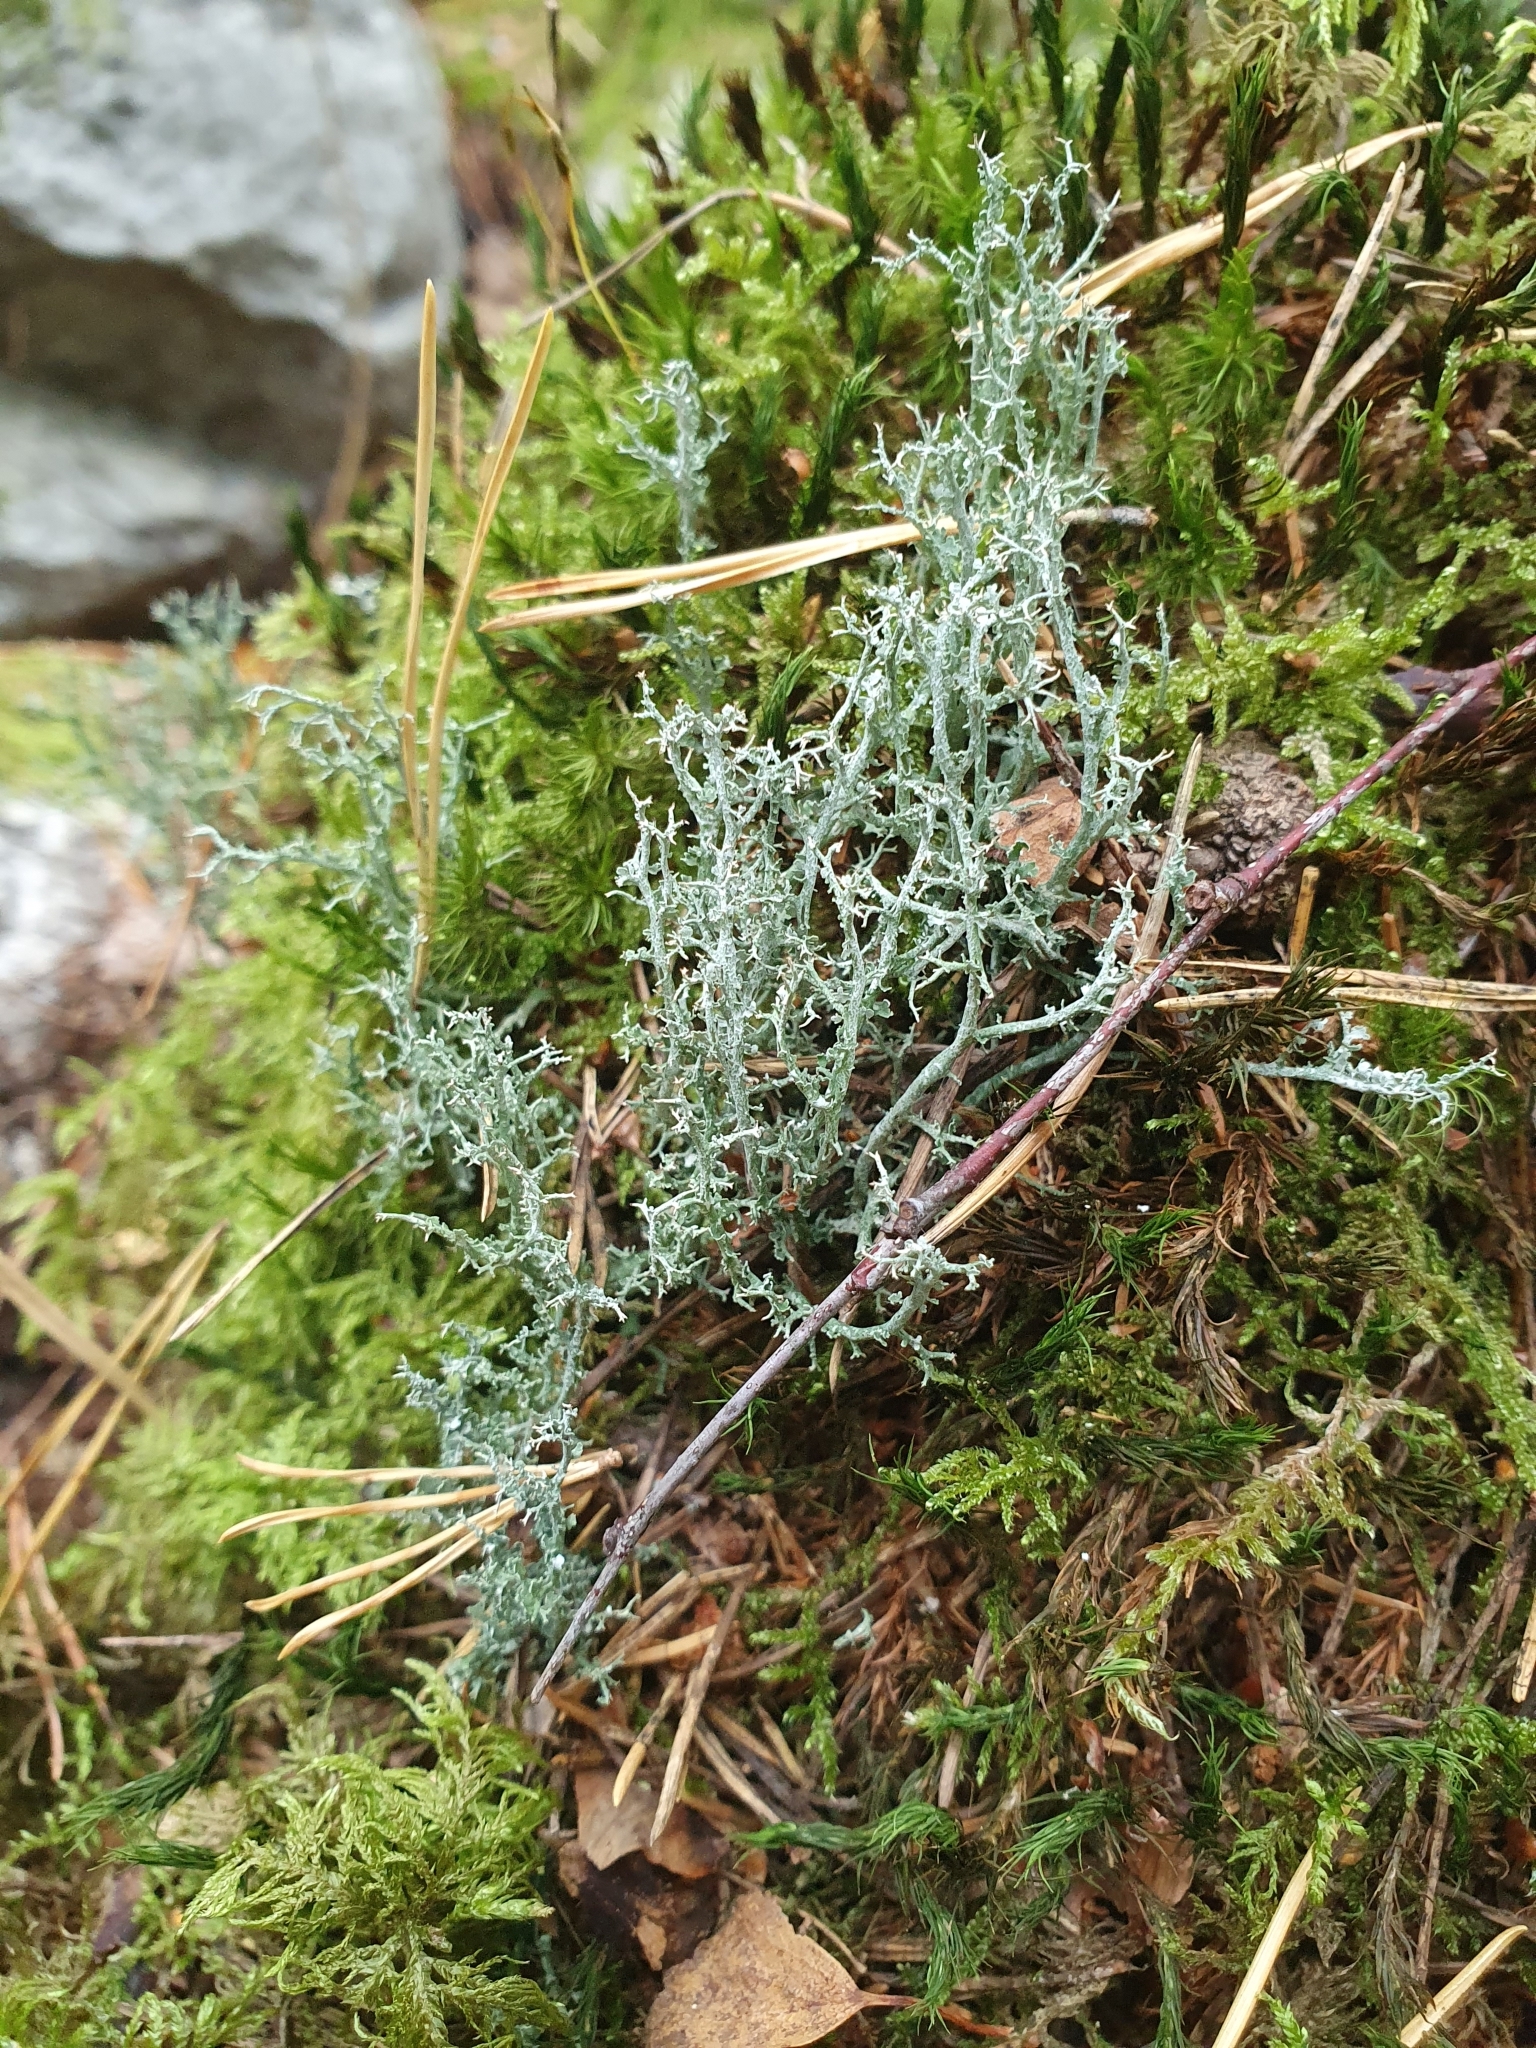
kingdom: Fungi
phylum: Ascomycota
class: Lecanoromycetes
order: Lecanorales
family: Cladoniaceae
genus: Cladonia
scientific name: Cladonia furcata
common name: Many-forked cladonia
